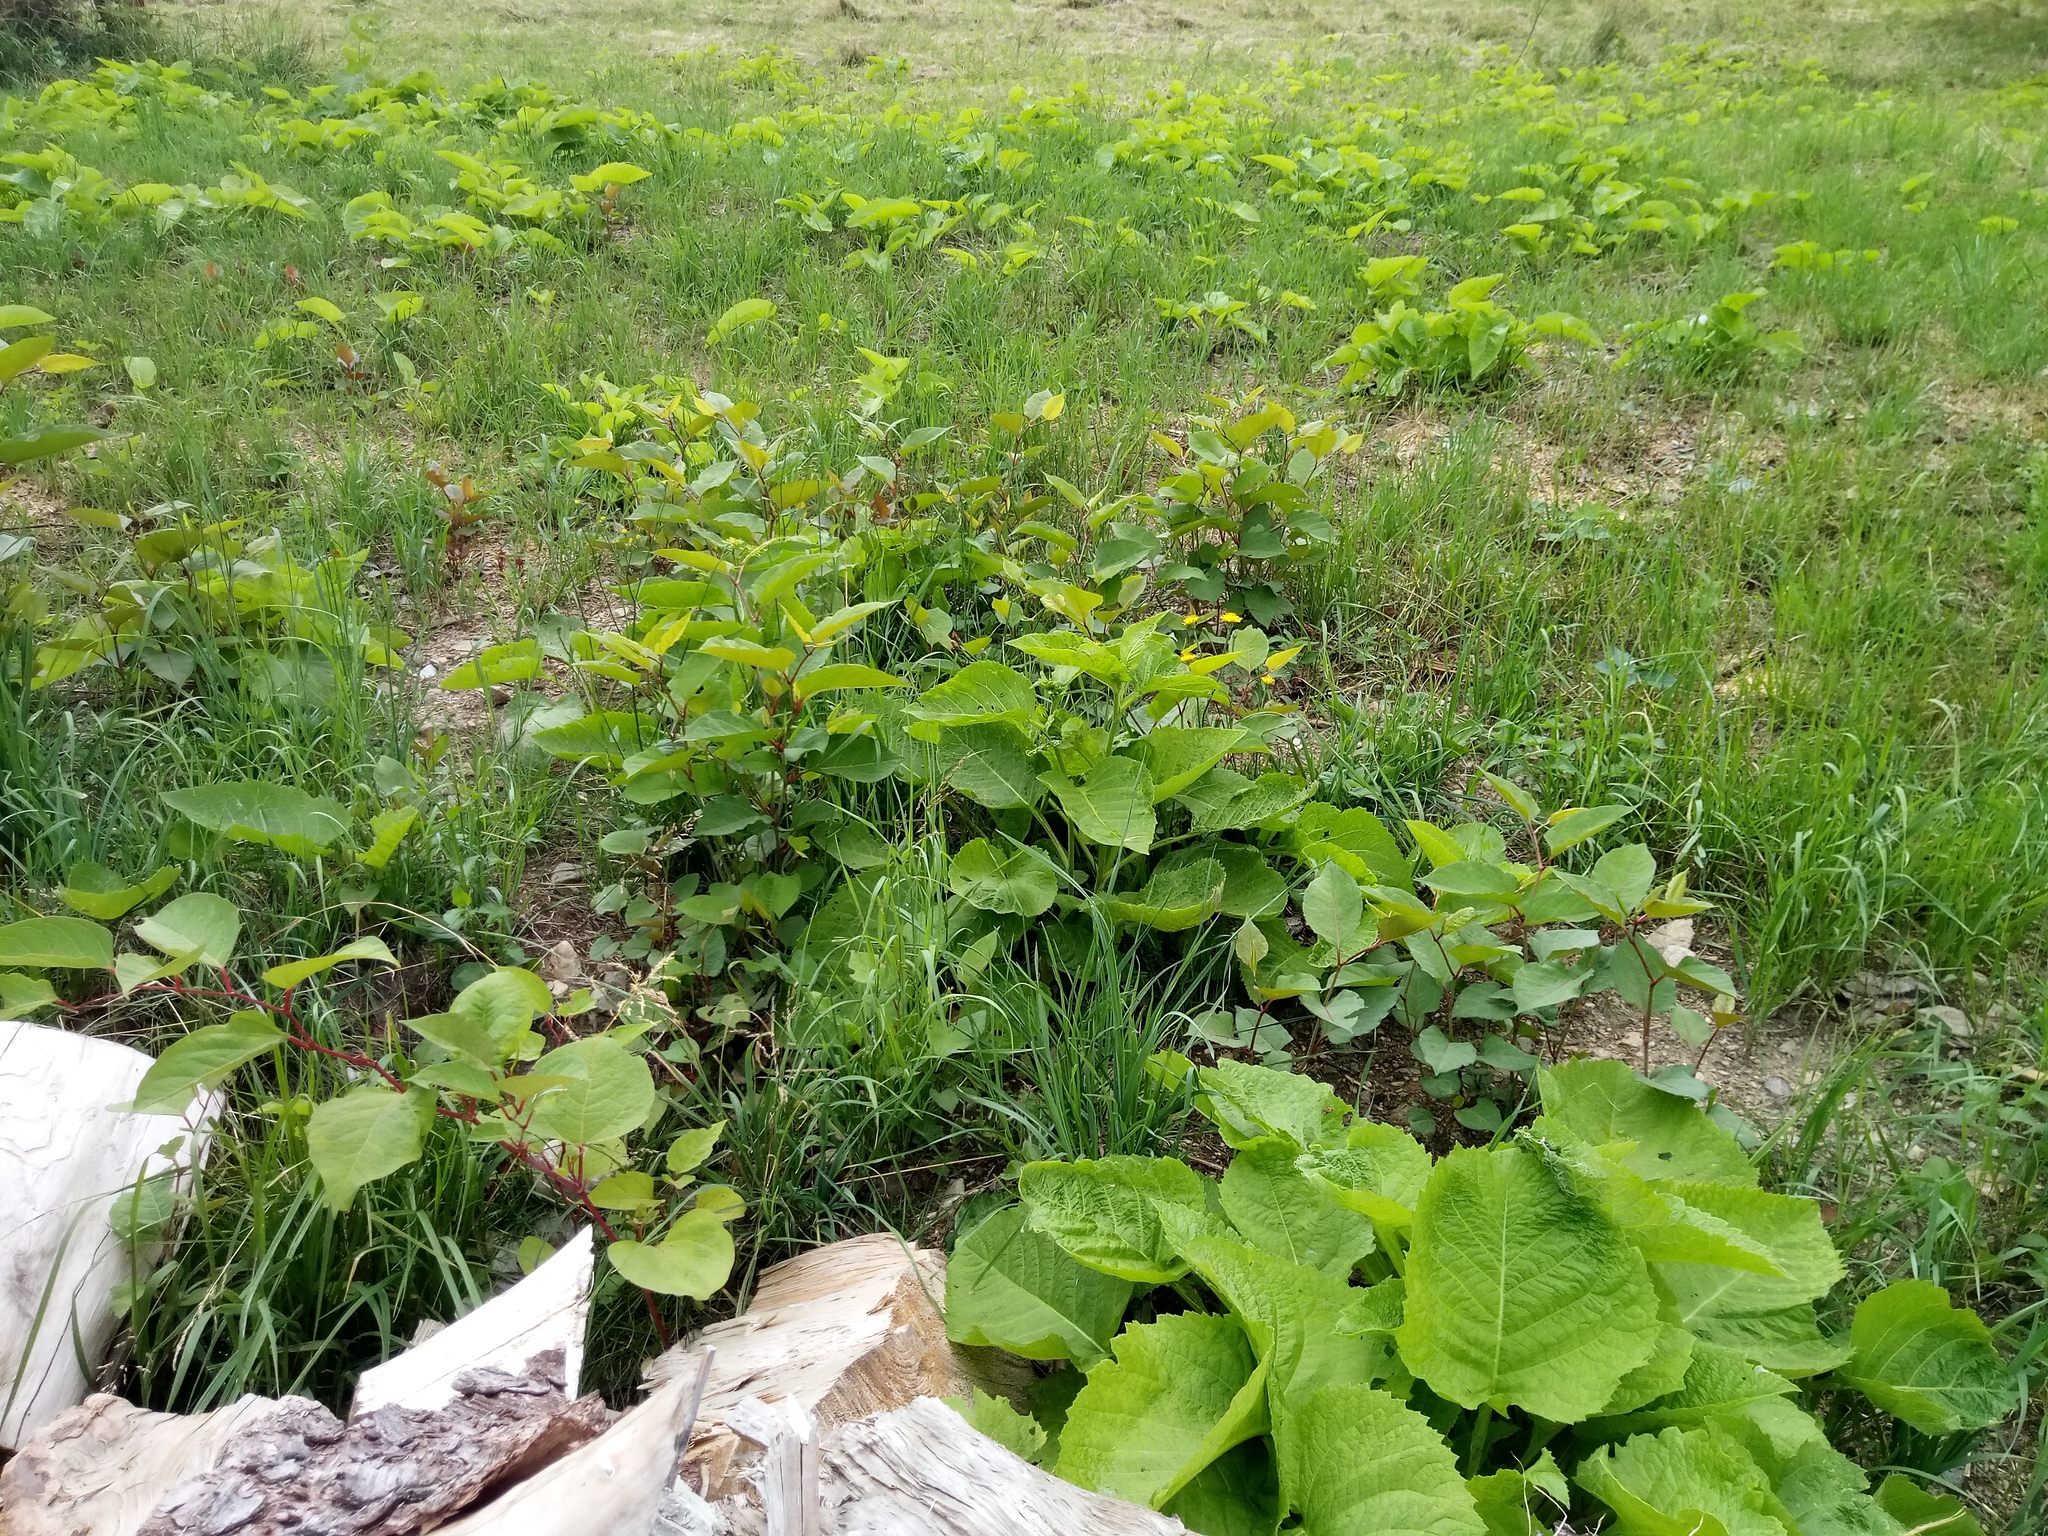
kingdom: Plantae
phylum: Tracheophyta
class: Magnoliopsida
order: Asterales
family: Asteraceae
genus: Telekia
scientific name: Telekia speciosa
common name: Yellow oxeye
